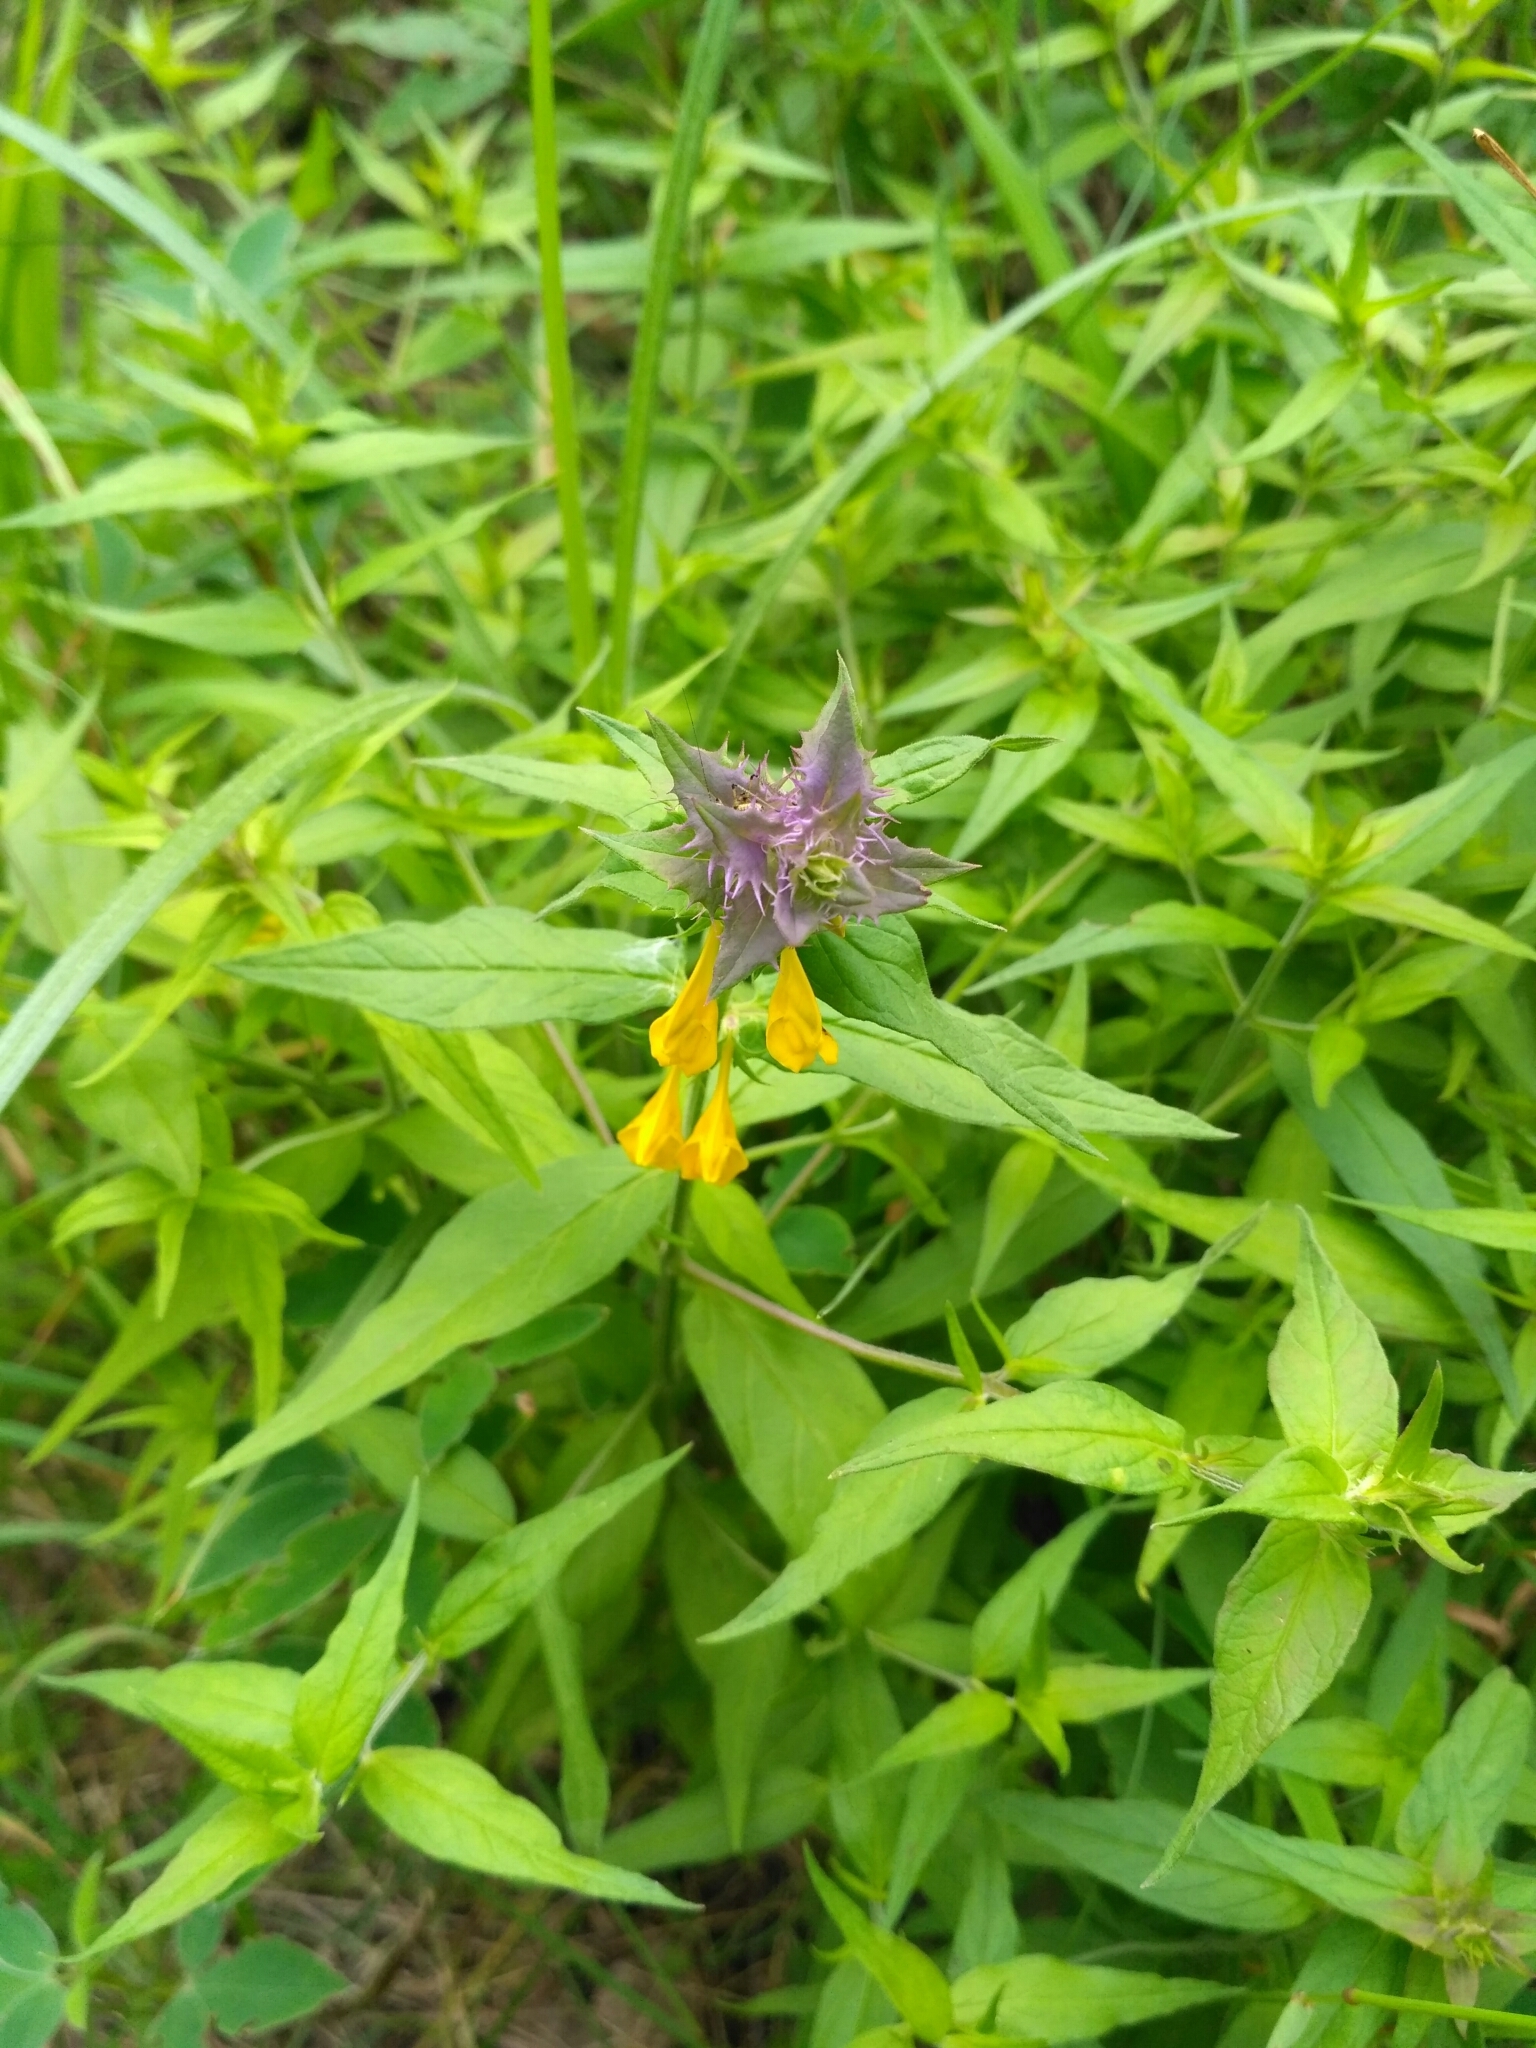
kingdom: Plantae
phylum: Tracheophyta
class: Magnoliopsida
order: Lamiales
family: Orobanchaceae
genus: Melampyrum
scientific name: Melampyrum nemorosum
